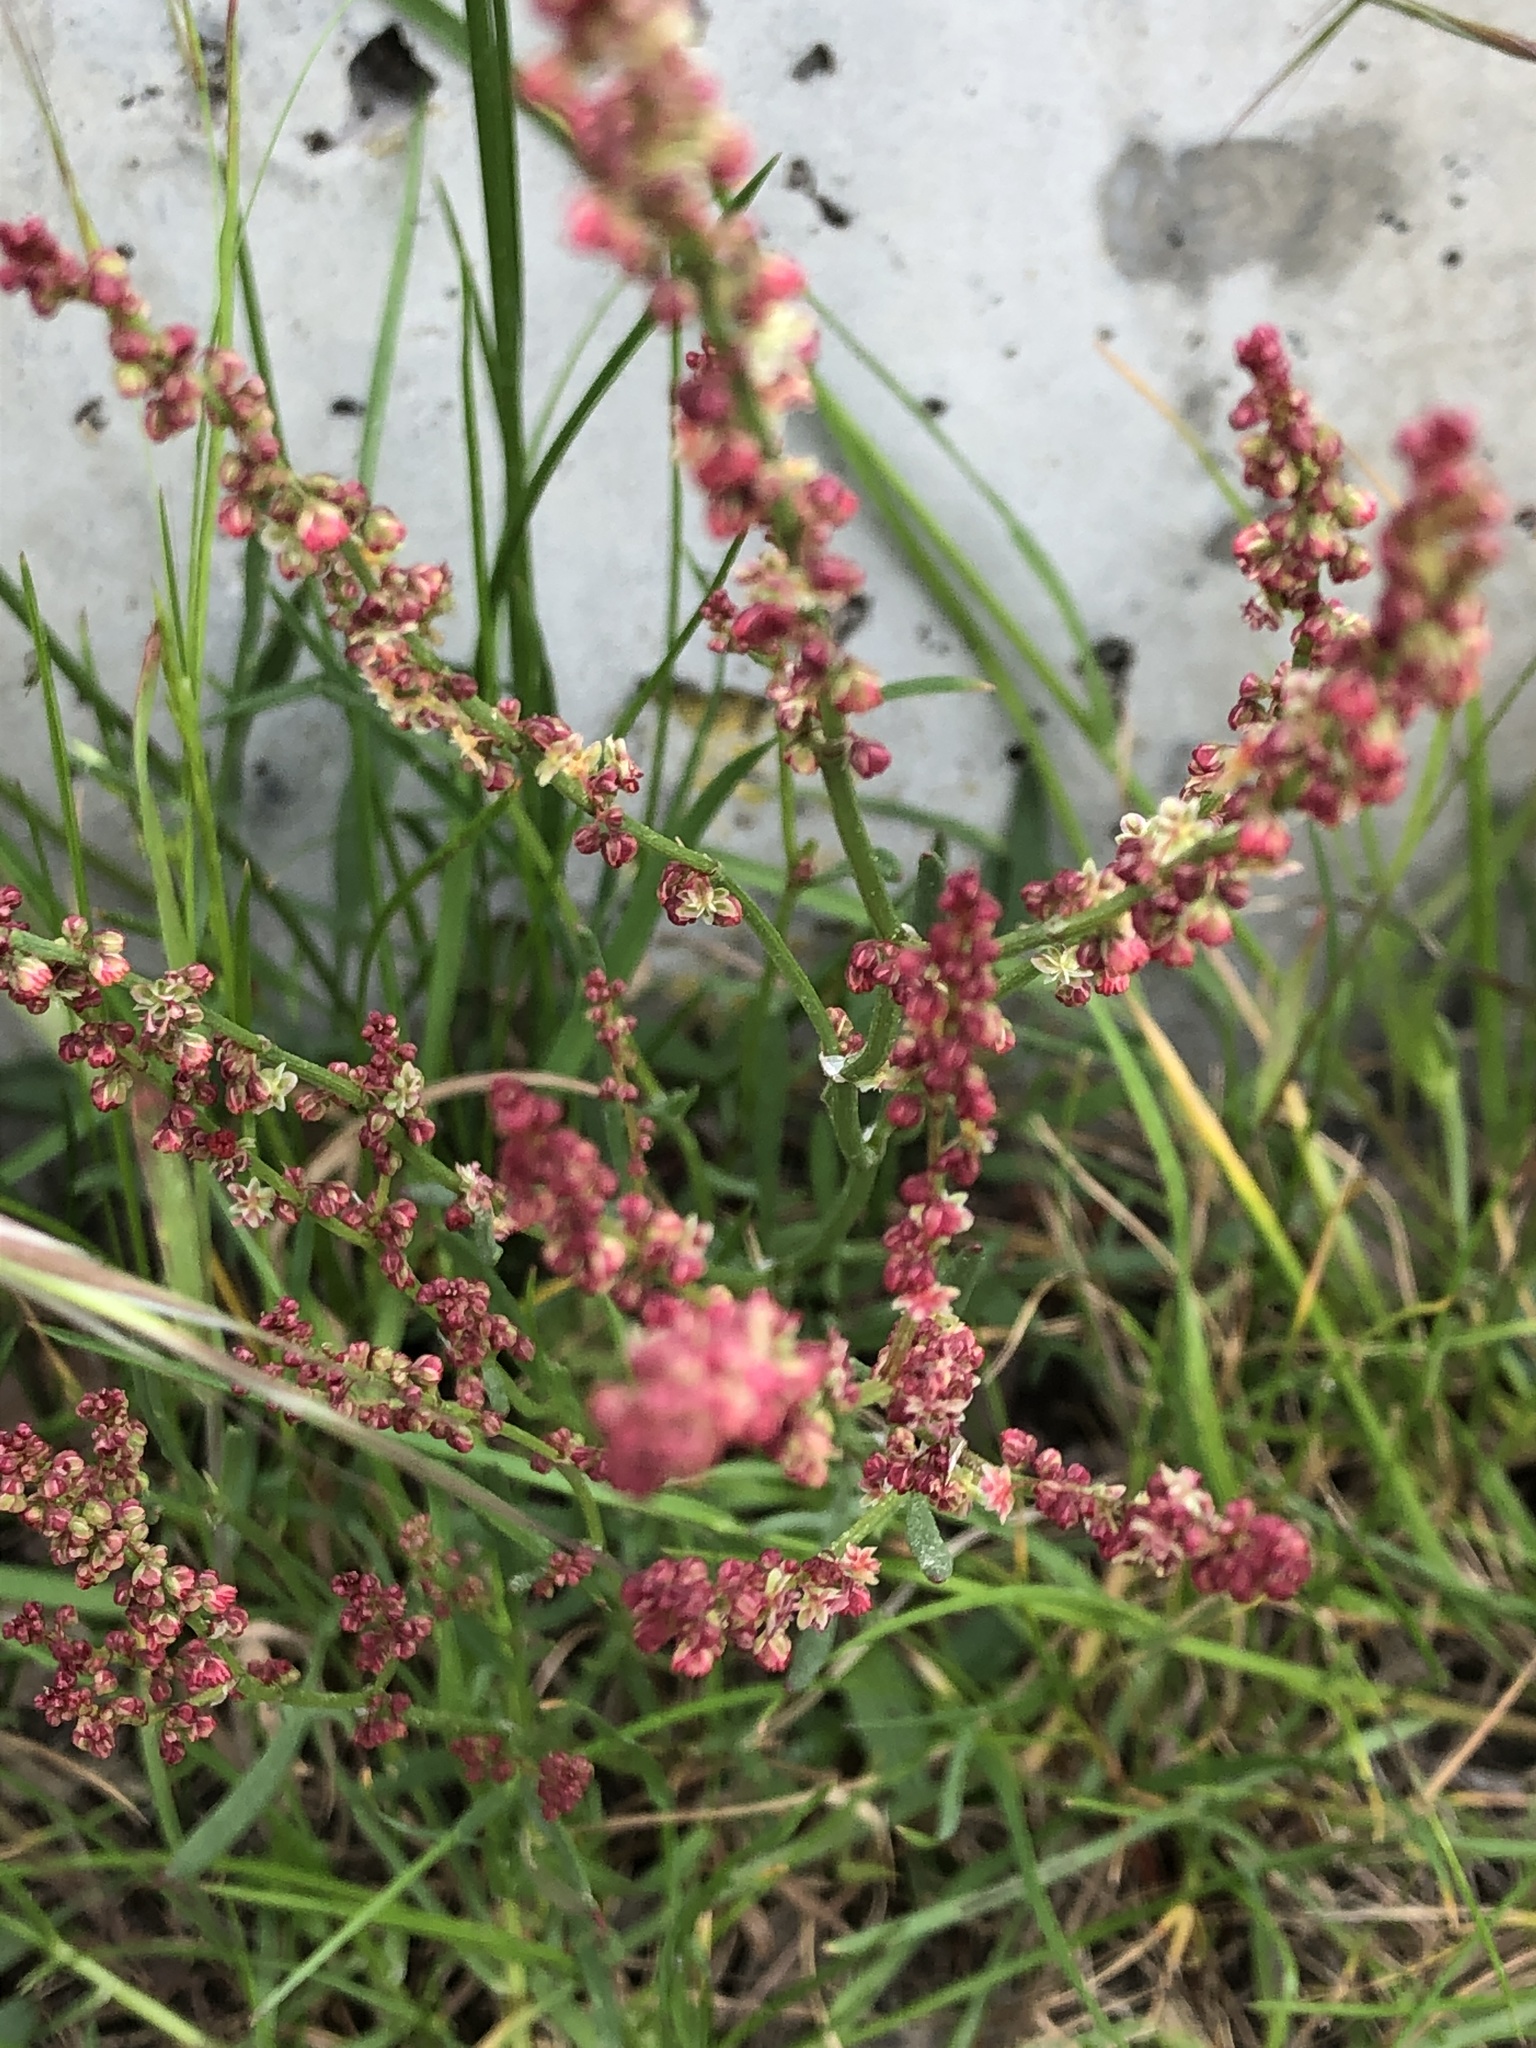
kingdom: Plantae
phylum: Tracheophyta
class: Magnoliopsida
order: Caryophyllales
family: Polygonaceae
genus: Rumex
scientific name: Rumex acetosella
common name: Common sheep sorrel
